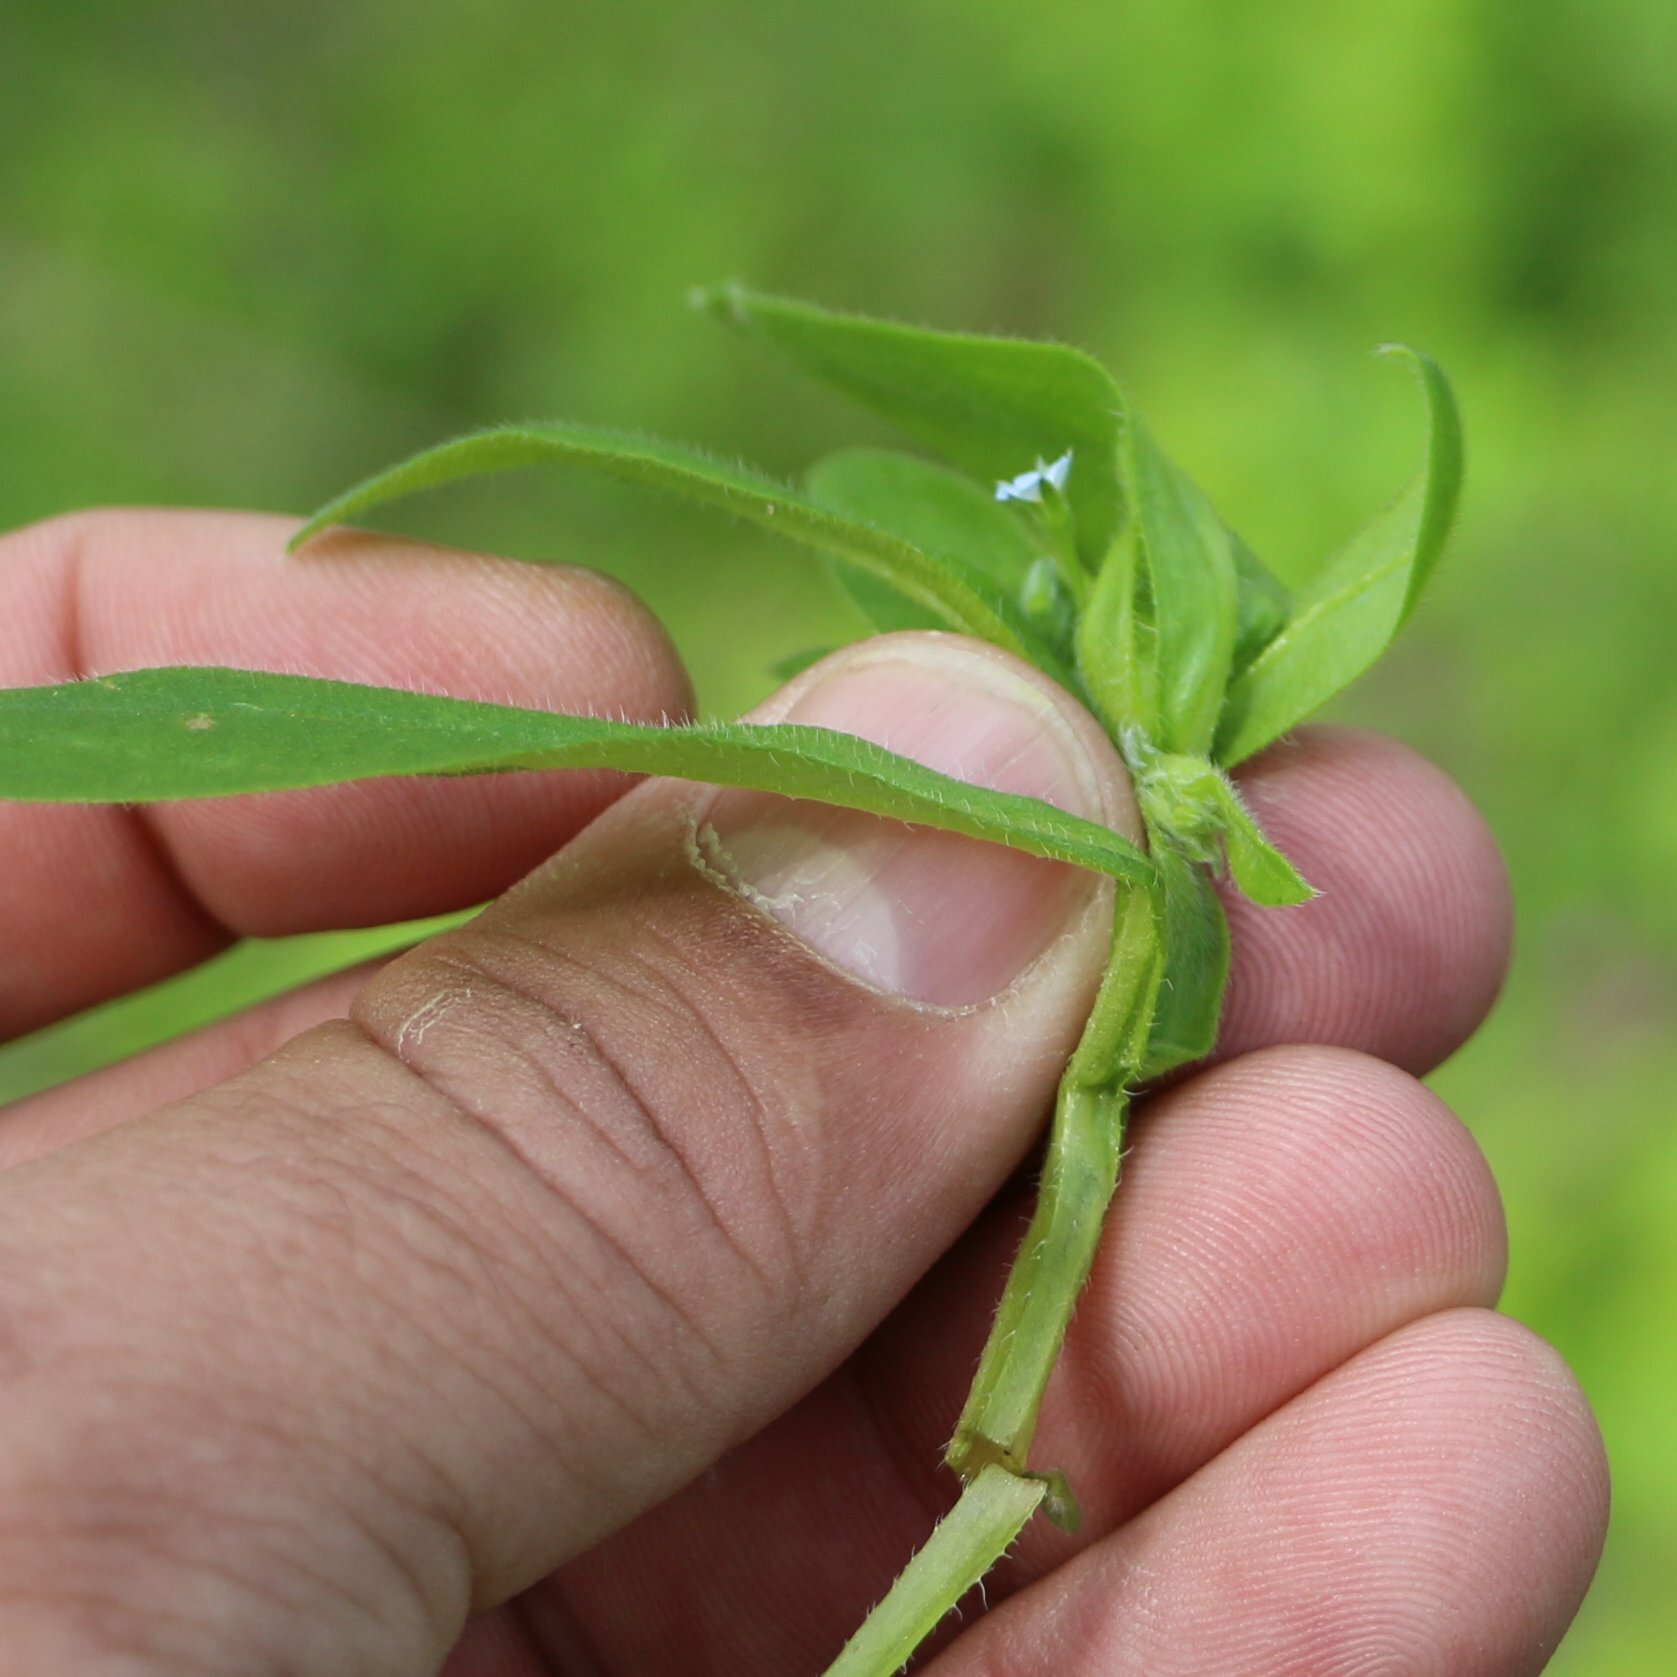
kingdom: Plantae
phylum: Tracheophyta
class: Magnoliopsida
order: Boraginales
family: Boraginaceae
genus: Myosotis
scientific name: Myosotis sparsiflora
